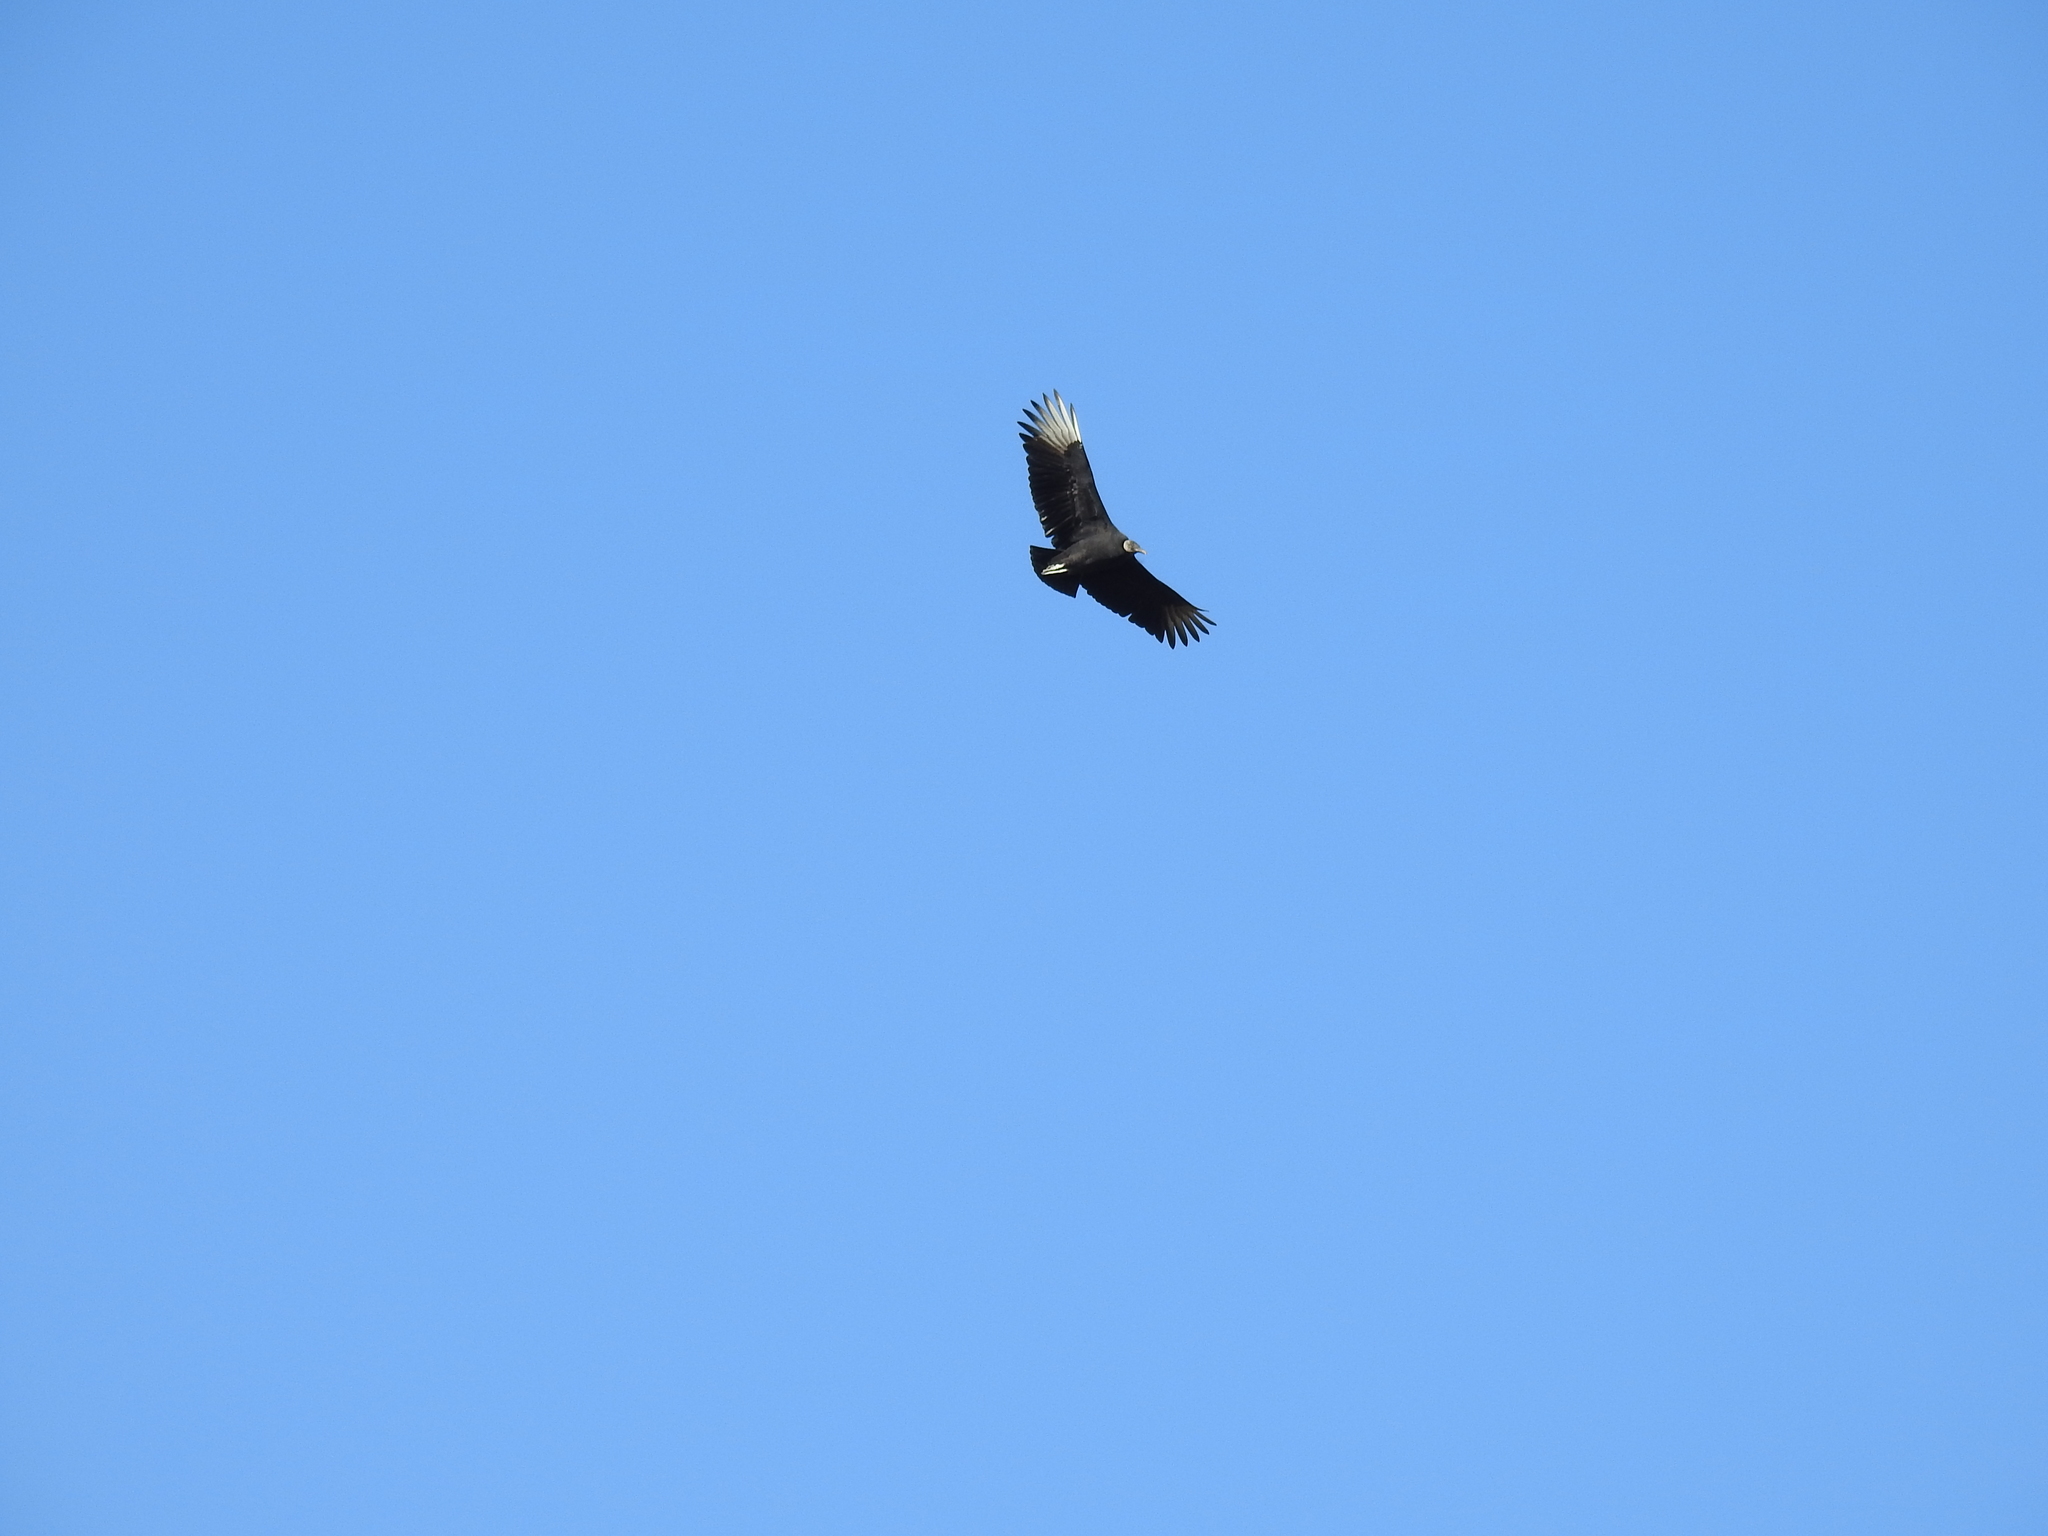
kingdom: Animalia
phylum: Chordata
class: Aves
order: Accipitriformes
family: Cathartidae
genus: Coragyps
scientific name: Coragyps atratus
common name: Black vulture
